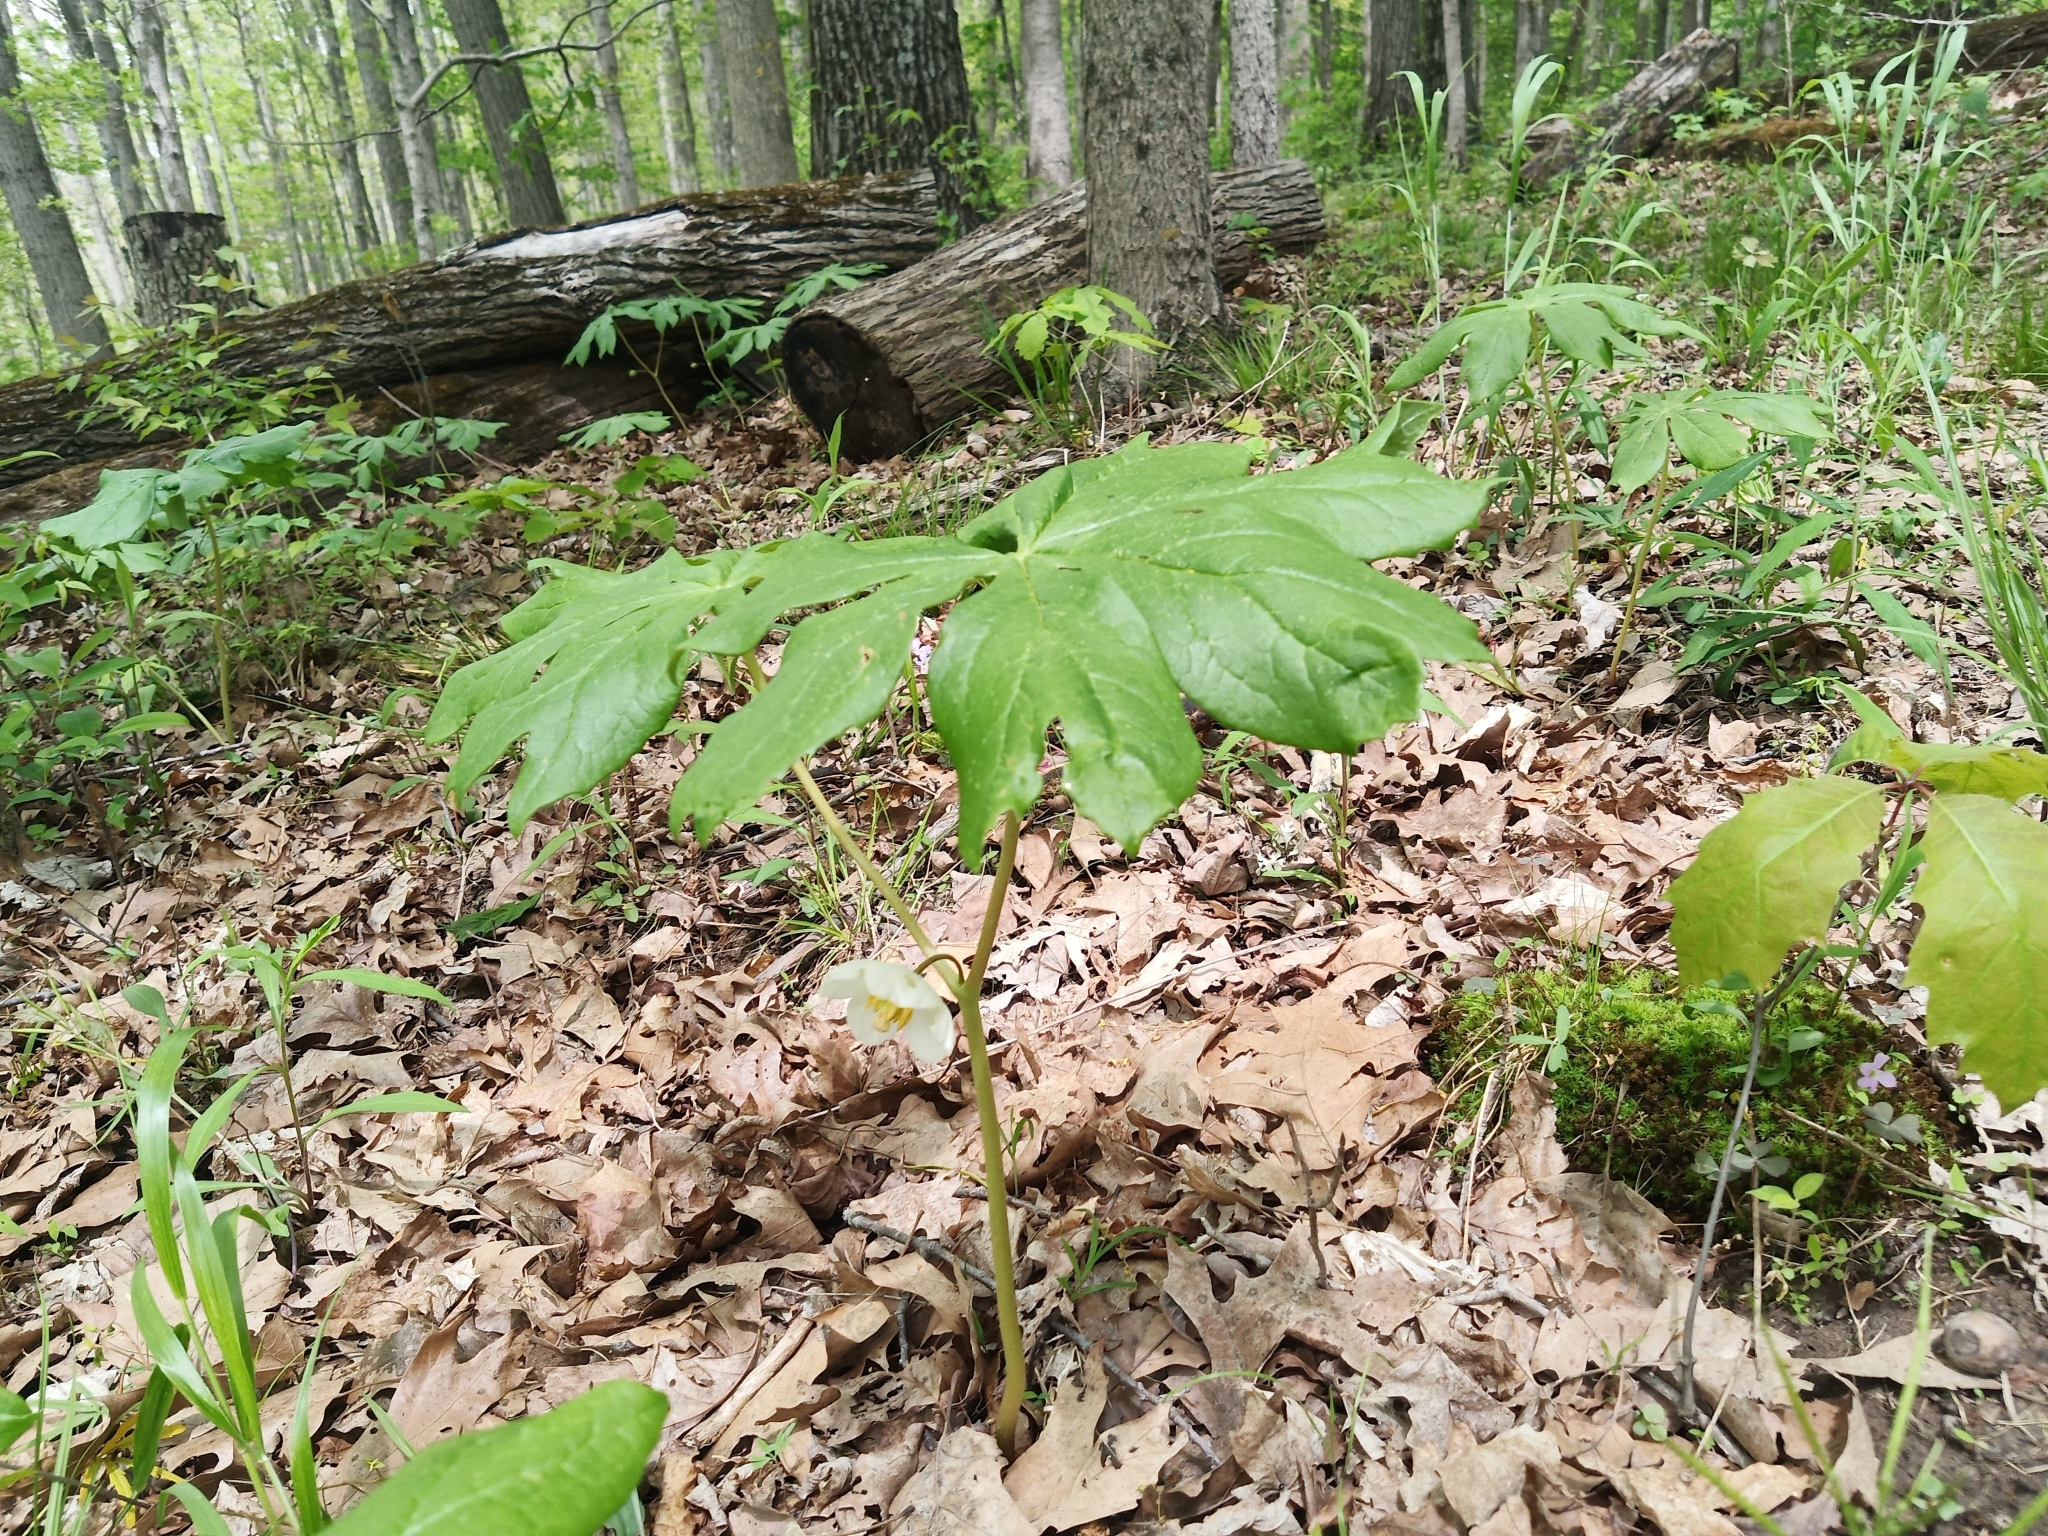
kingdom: Plantae
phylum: Tracheophyta
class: Magnoliopsida
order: Ranunculales
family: Berberidaceae
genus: Podophyllum
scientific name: Podophyllum peltatum
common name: Wild mandrake
